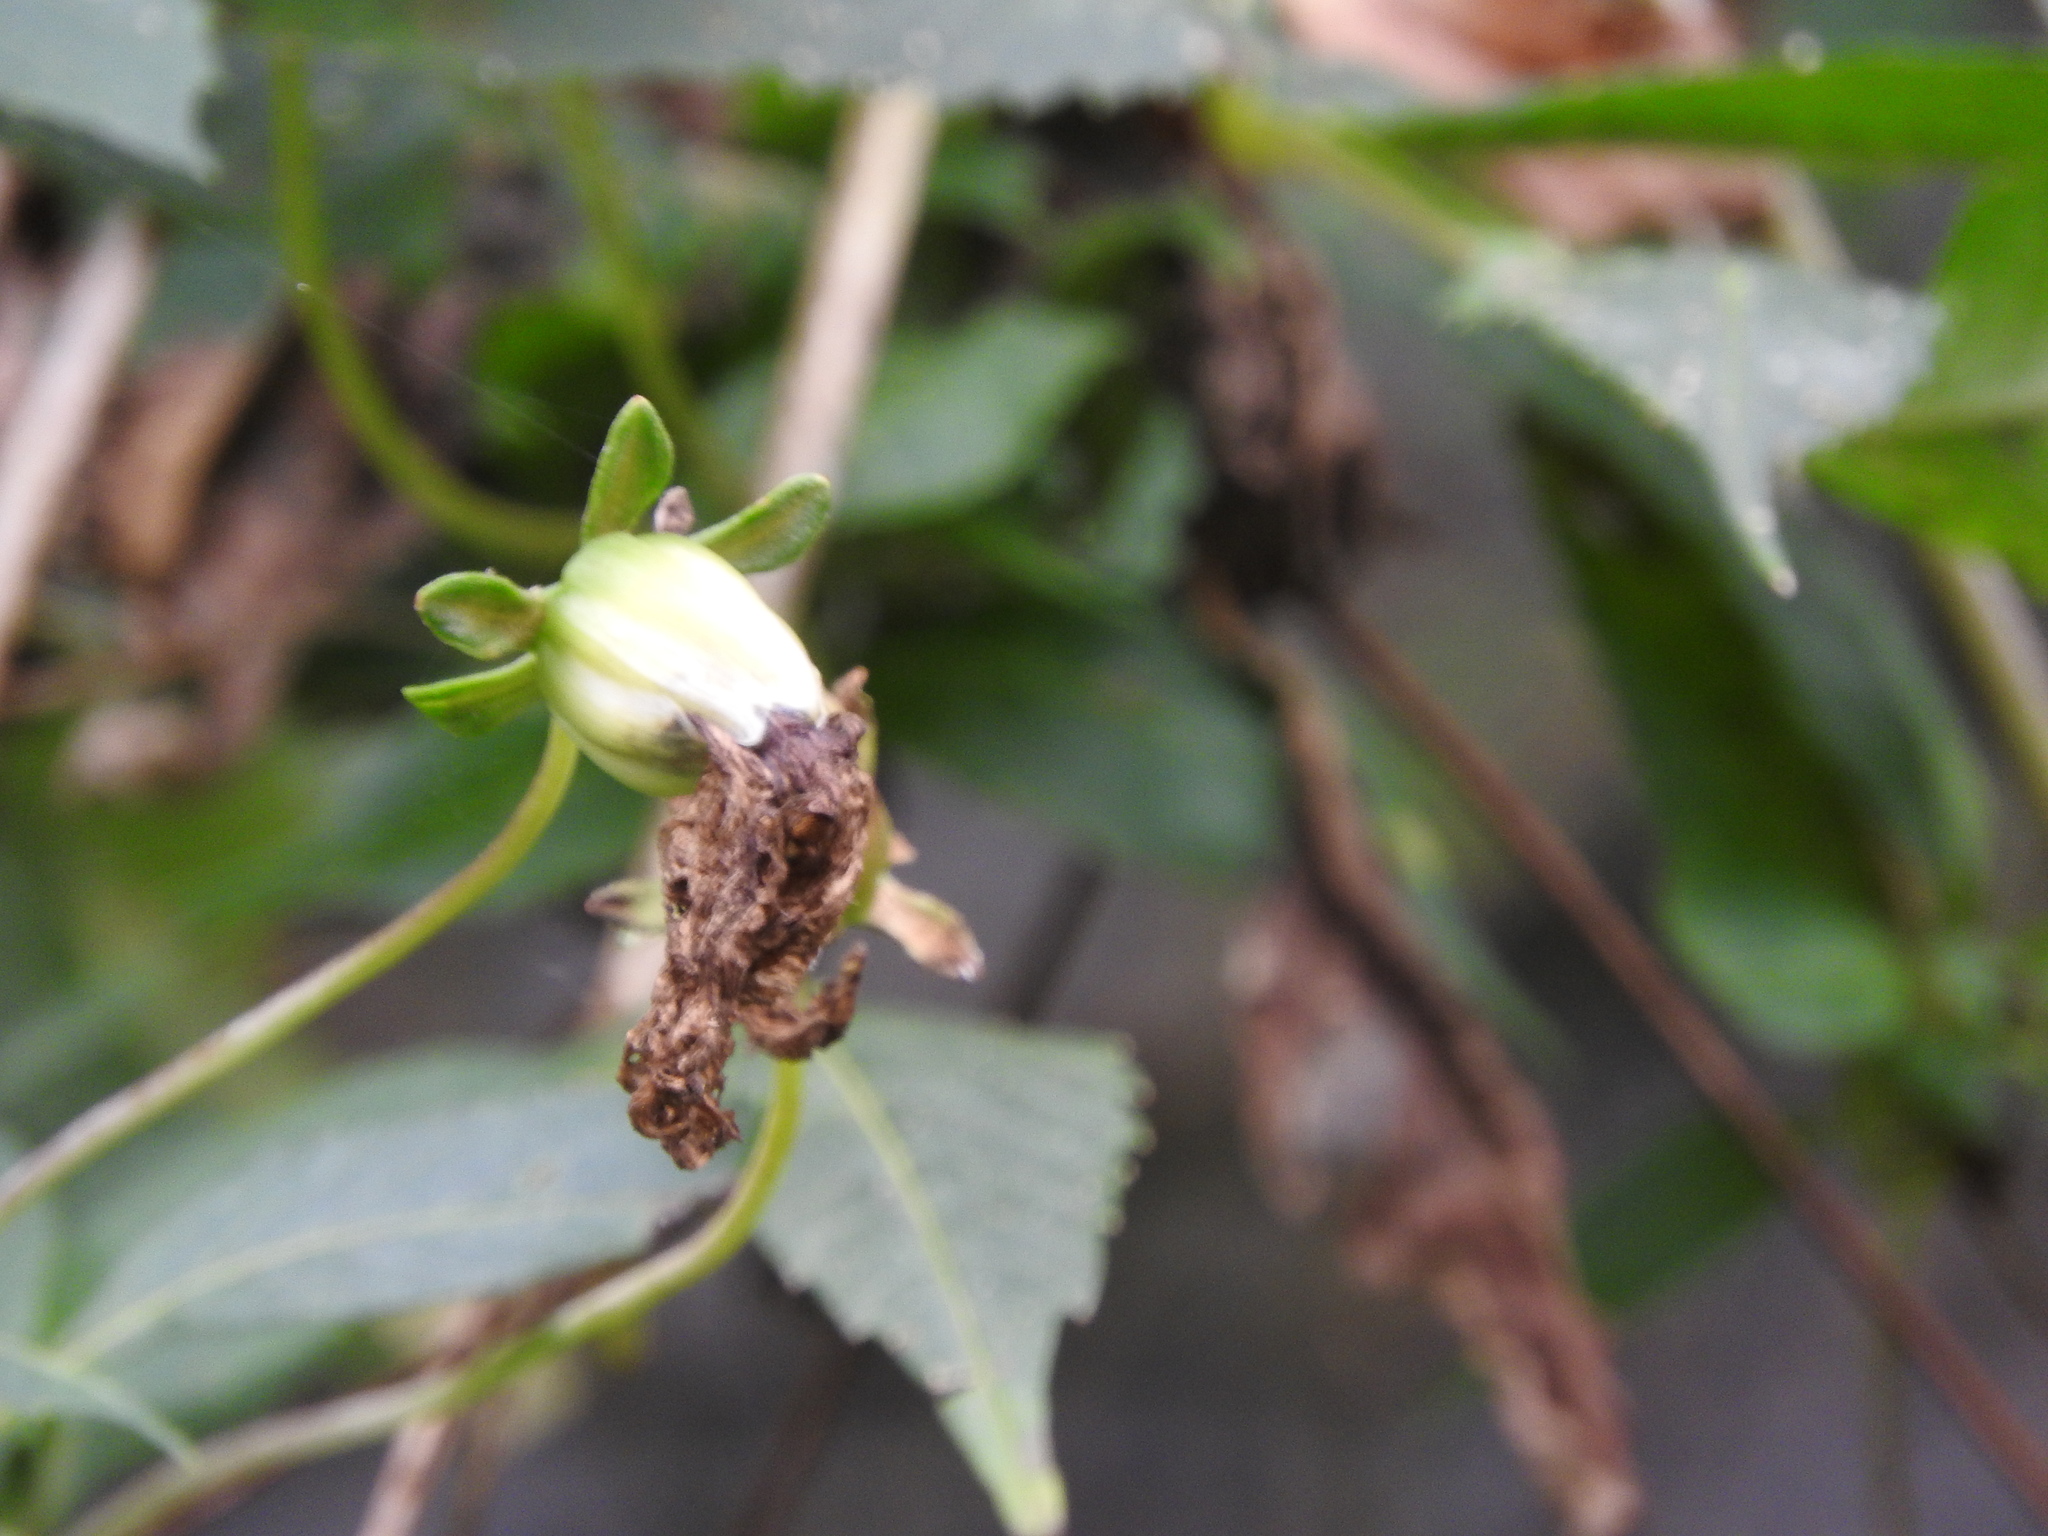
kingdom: Plantae
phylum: Tracheophyta
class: Magnoliopsida
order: Asterales
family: Asteraceae
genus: Dahlia
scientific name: Dahlia imperialis
